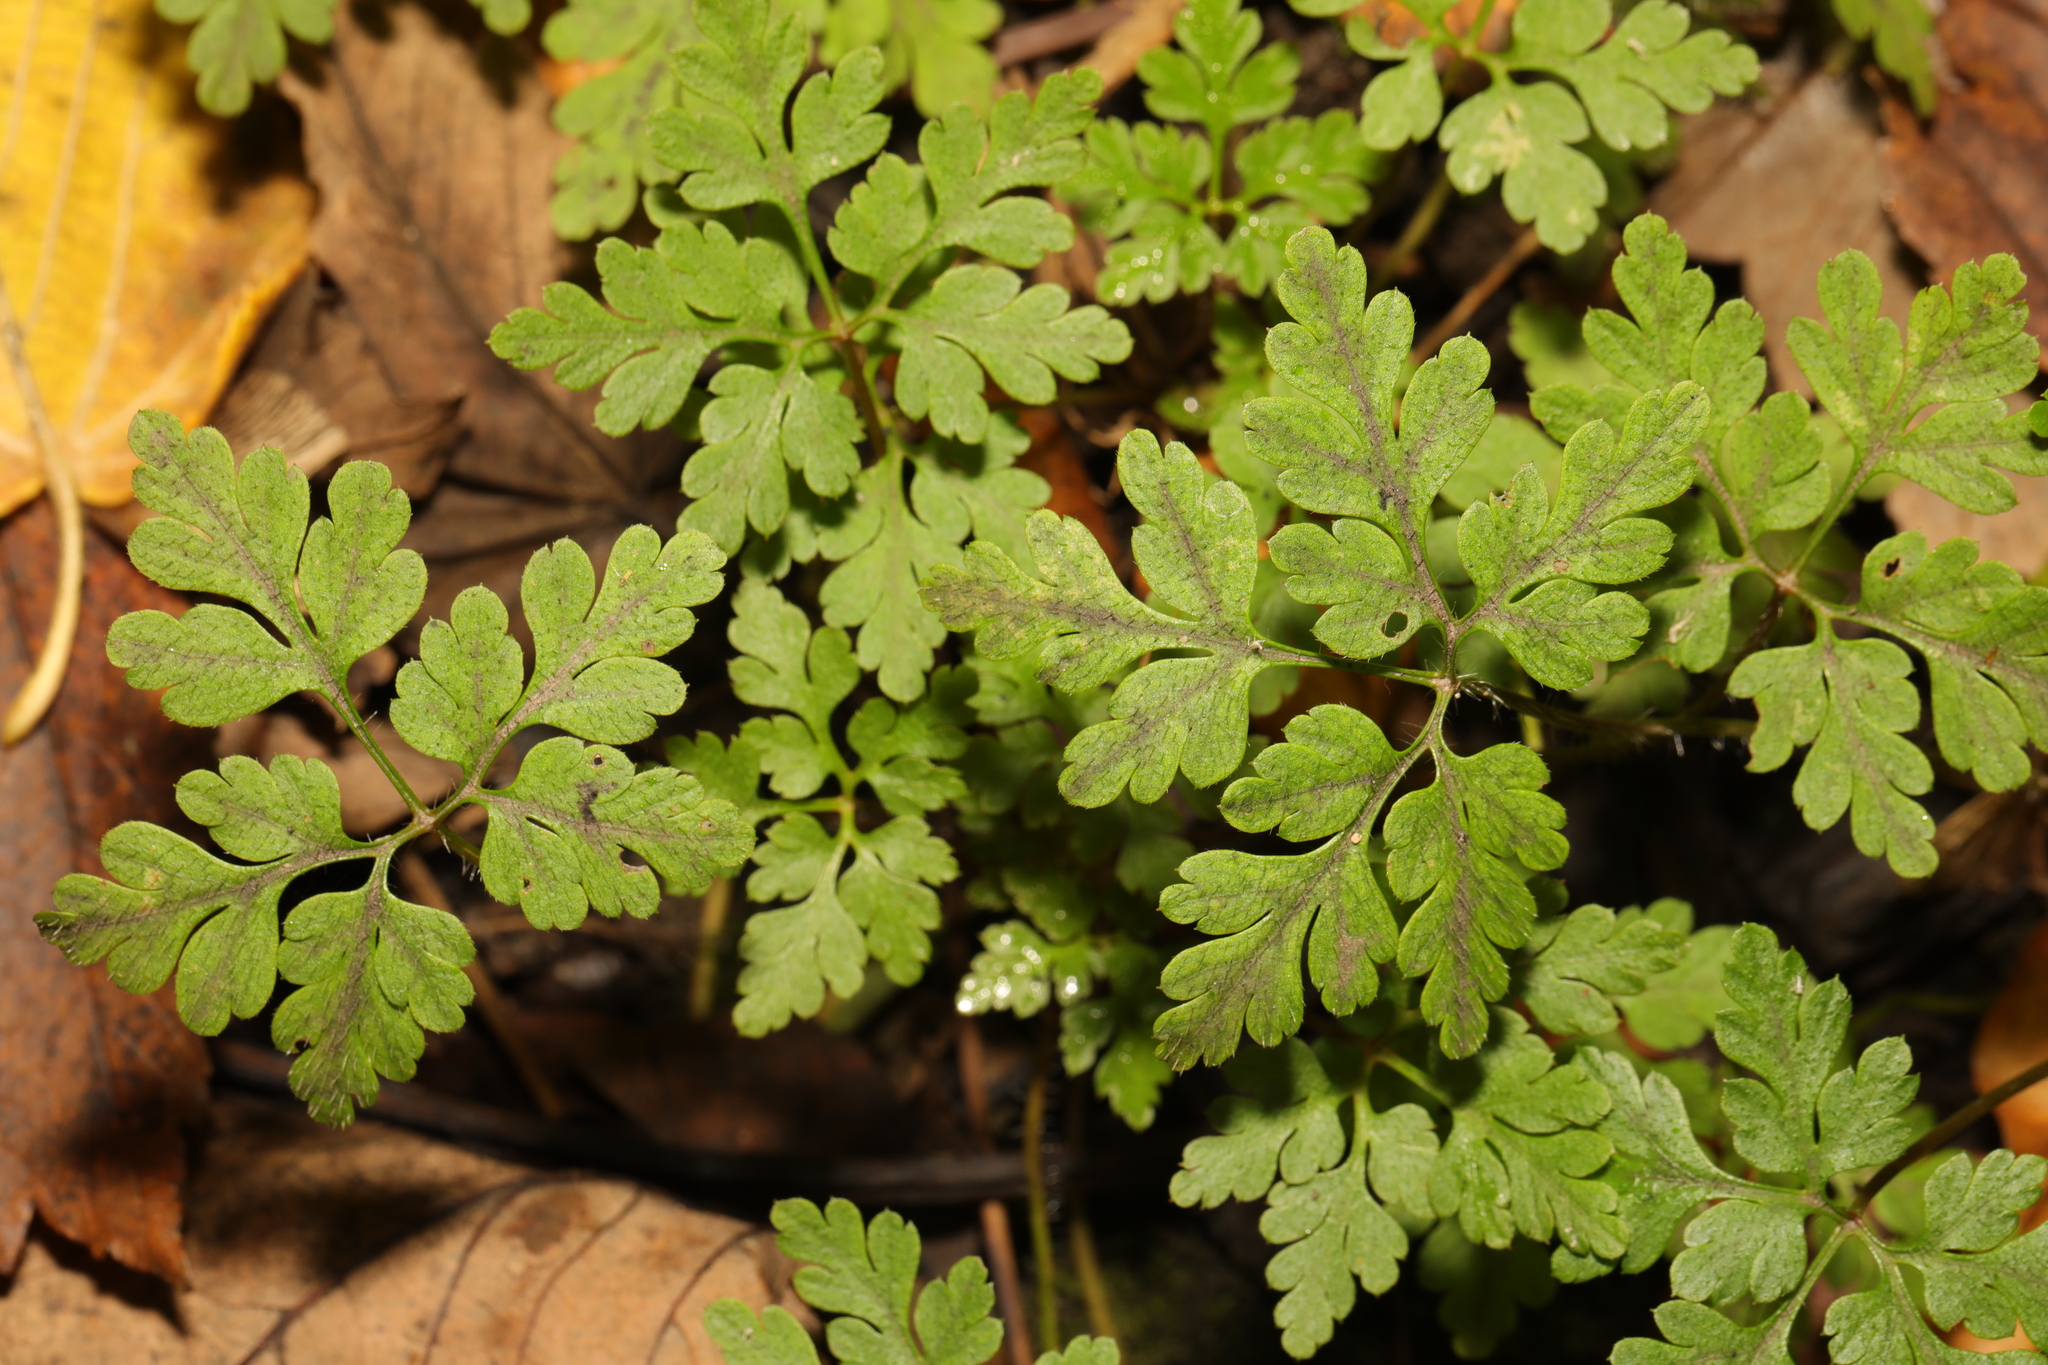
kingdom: Plantae
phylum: Tracheophyta
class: Magnoliopsida
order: Geraniales
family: Geraniaceae
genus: Geranium
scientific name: Geranium robertianum
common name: Herb-robert
